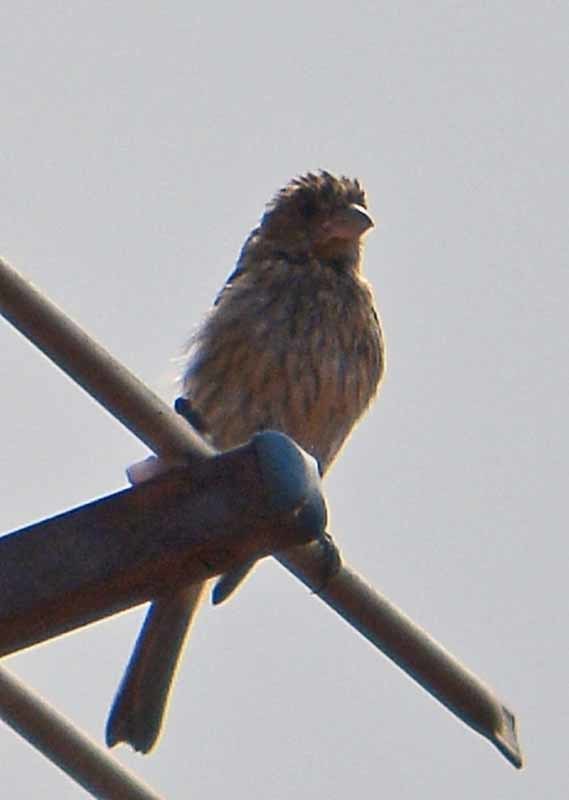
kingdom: Animalia
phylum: Chordata
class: Aves
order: Passeriformes
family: Fringillidae
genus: Haemorhous
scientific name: Haemorhous mexicanus
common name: House finch
